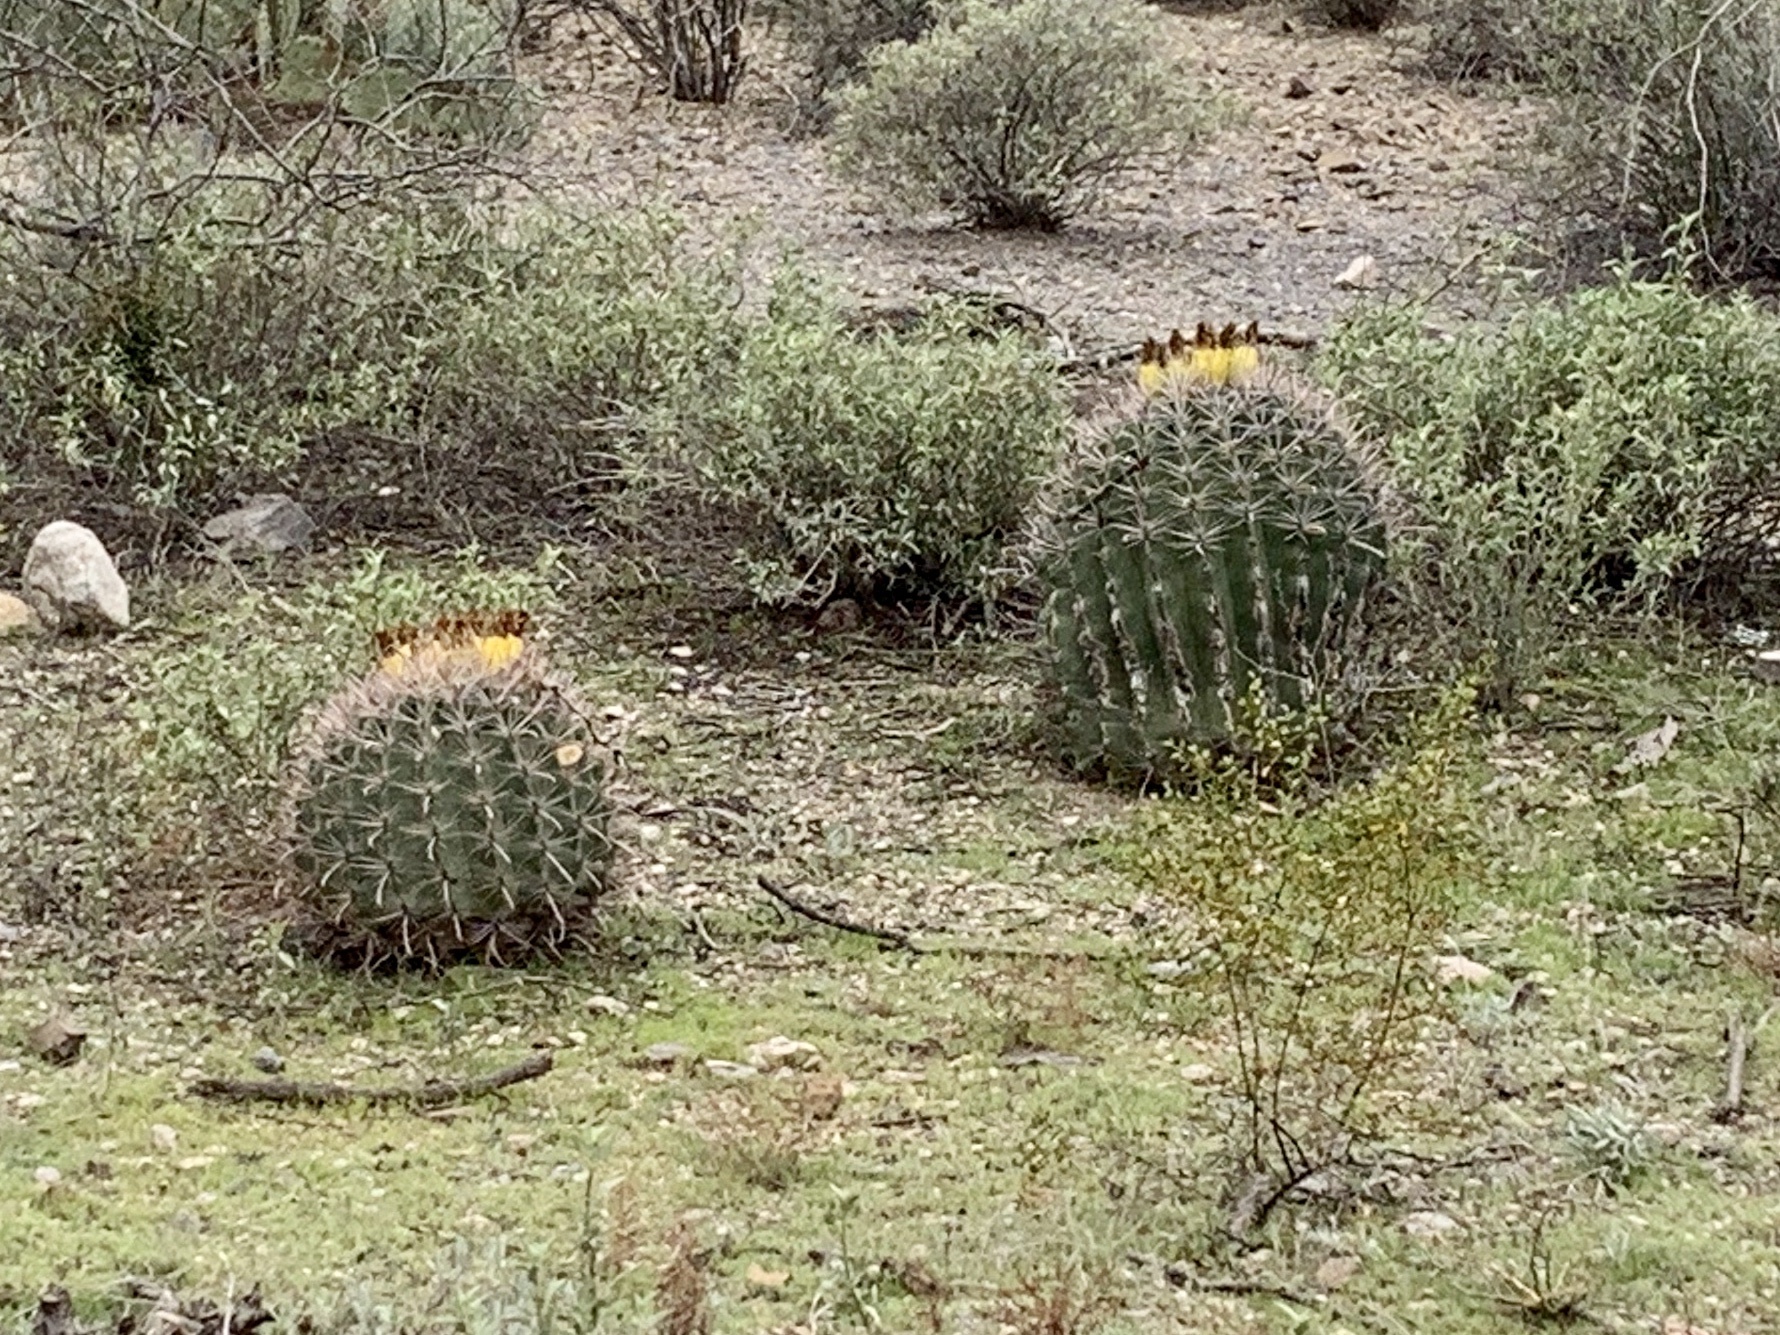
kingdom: Plantae
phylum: Tracheophyta
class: Magnoliopsida
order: Caryophyllales
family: Cactaceae
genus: Ferocactus
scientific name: Ferocactus wislizeni
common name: Candy barrel cactus
